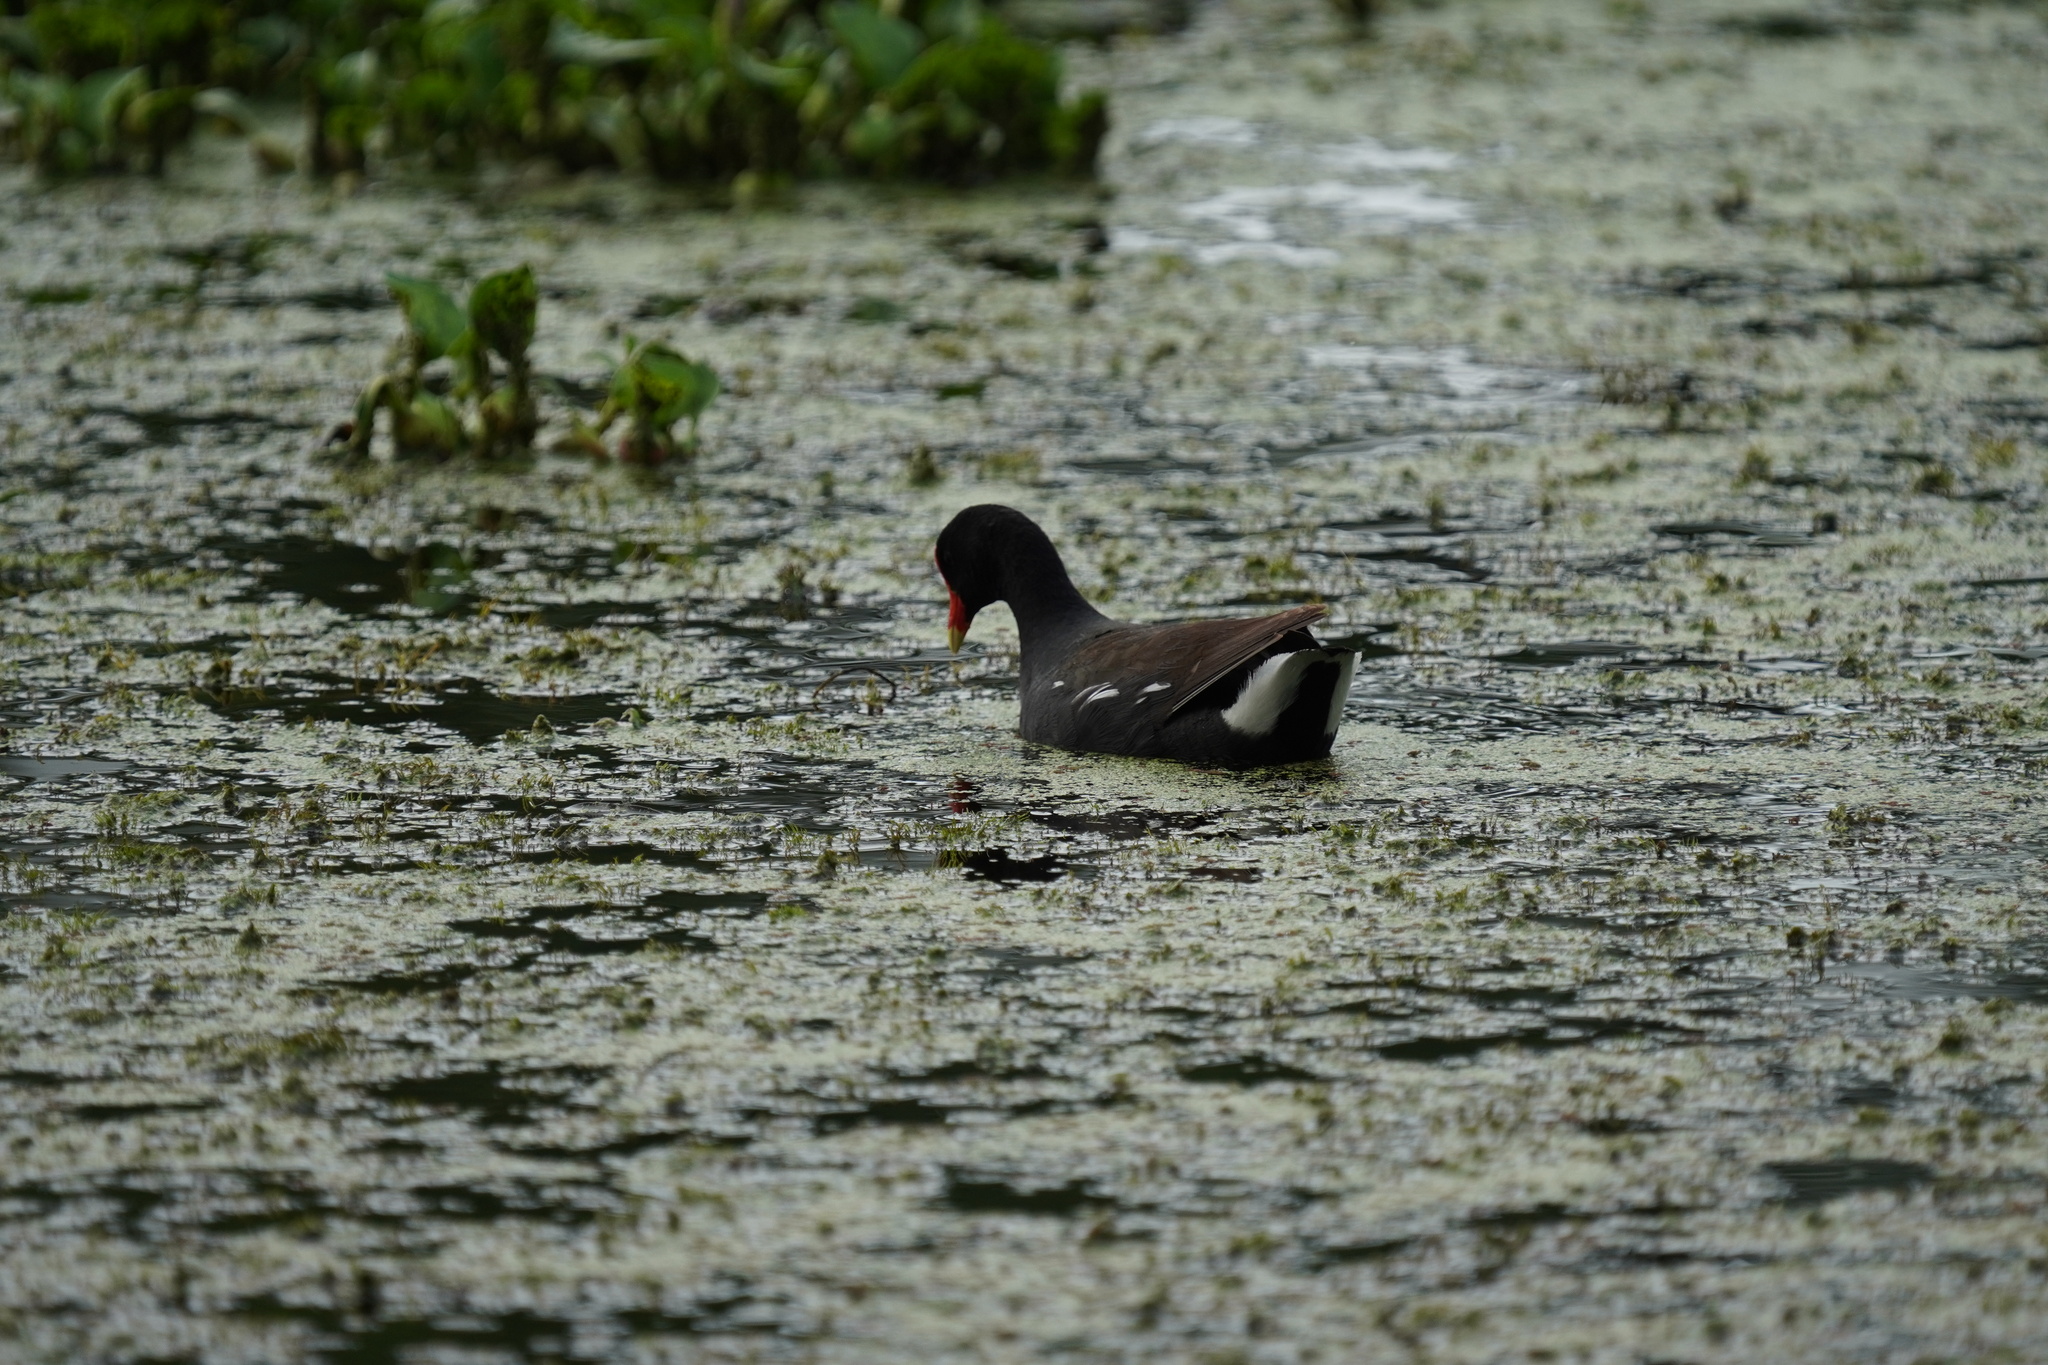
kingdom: Animalia
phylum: Chordata
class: Aves
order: Gruiformes
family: Rallidae
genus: Gallinula
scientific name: Gallinula chloropus
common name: Common moorhen
